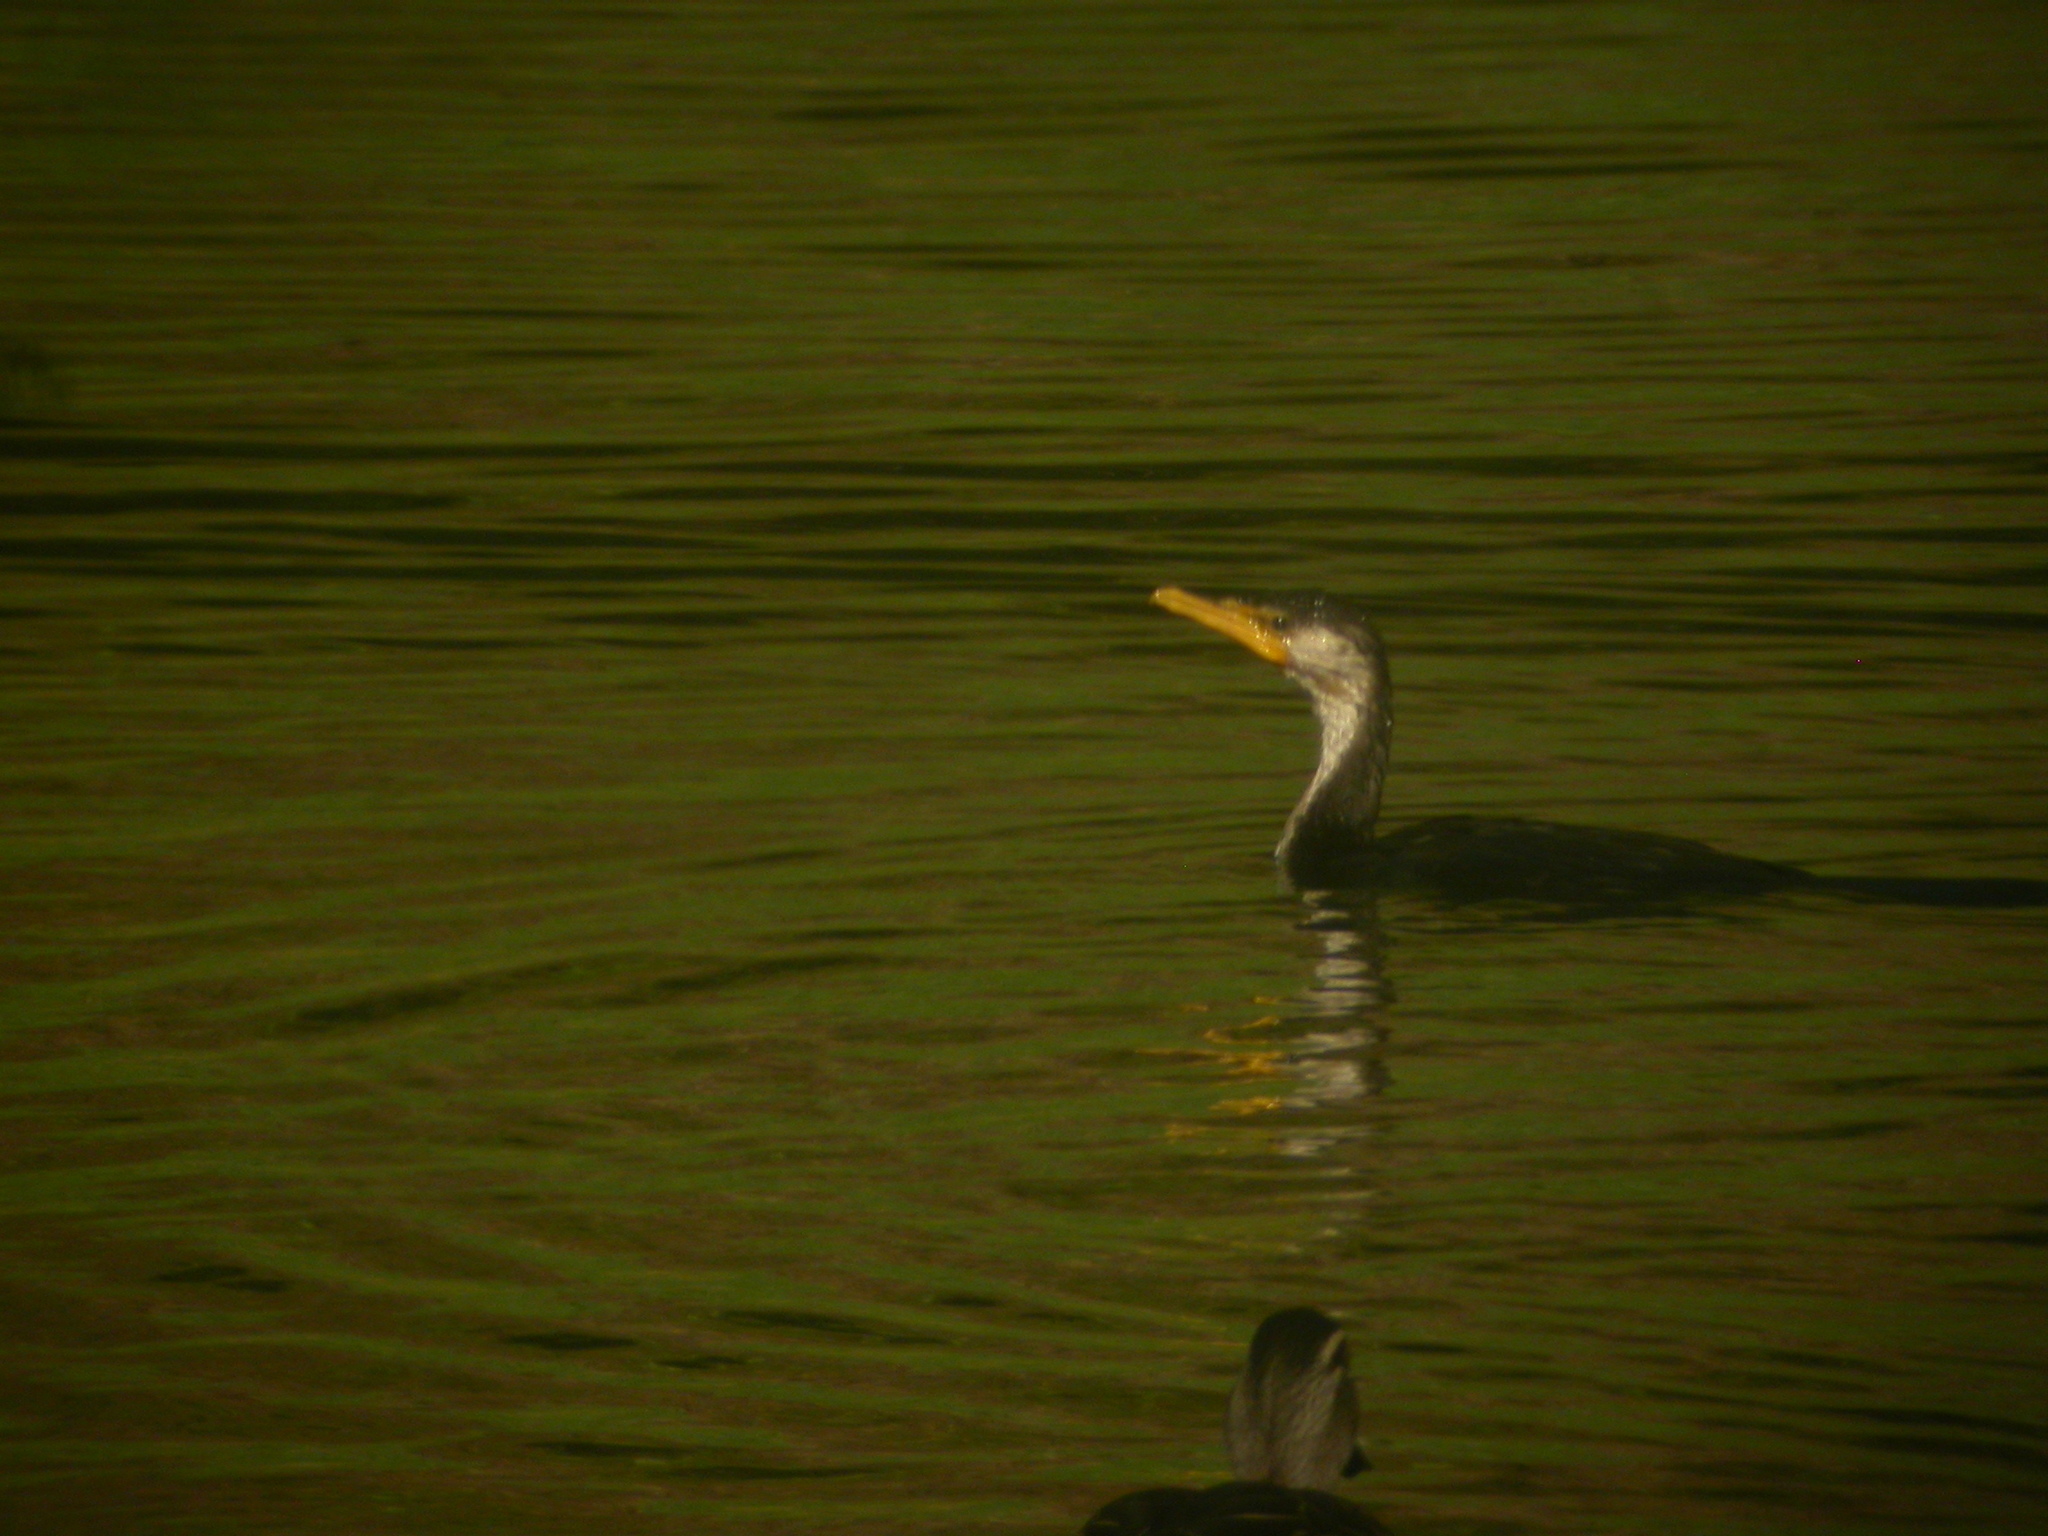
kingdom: Animalia
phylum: Chordata
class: Aves
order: Suliformes
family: Phalacrocoracidae
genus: Microcarbo
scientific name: Microcarbo melanoleucos
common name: Little pied cormorant
